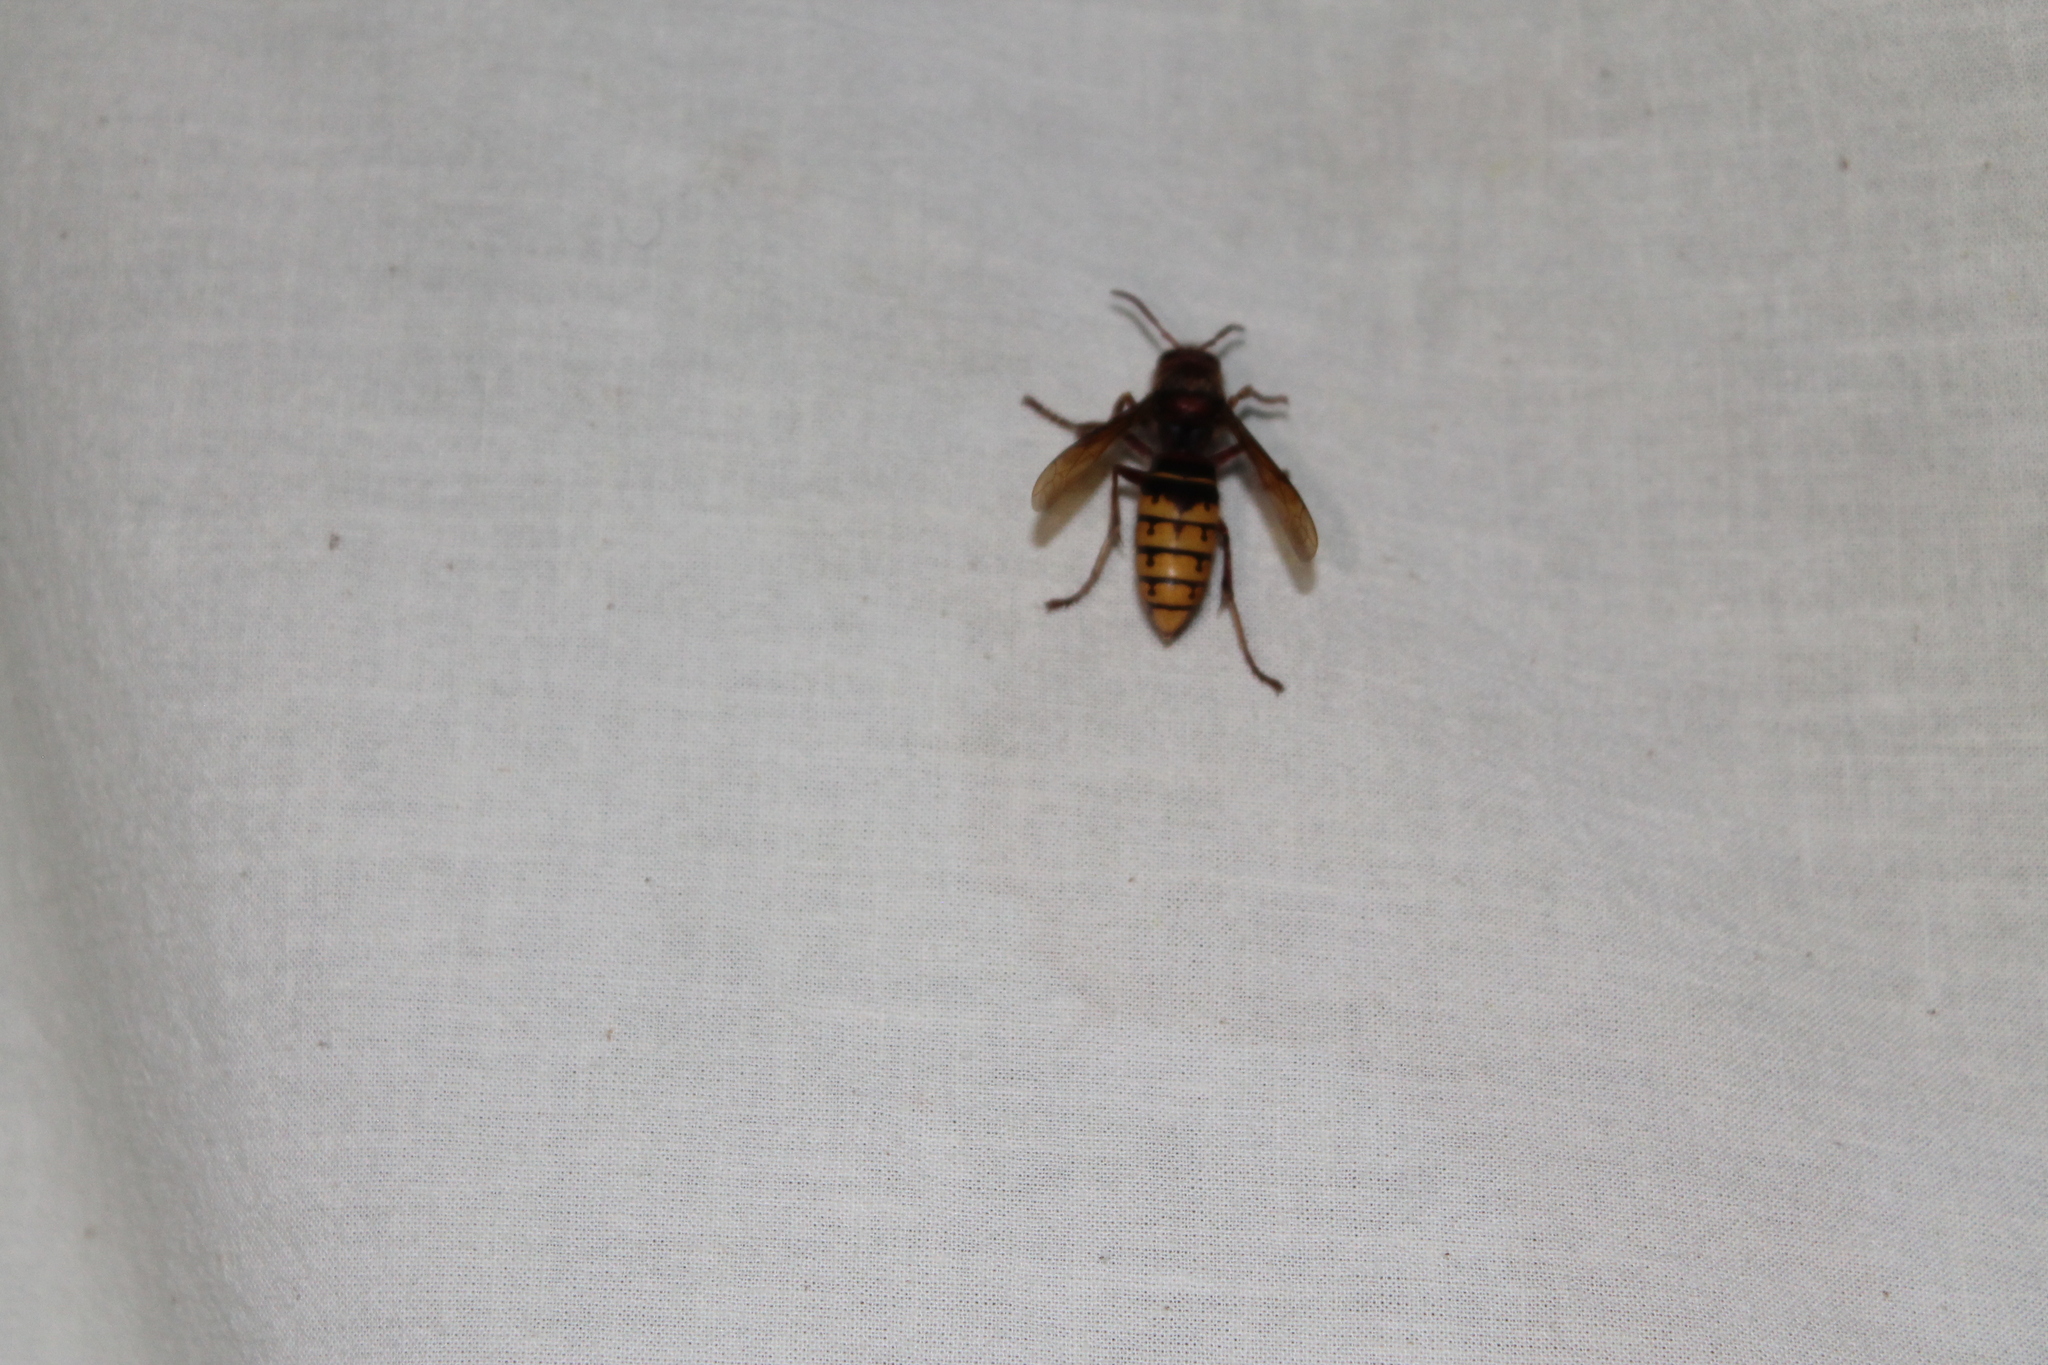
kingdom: Animalia
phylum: Arthropoda
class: Insecta
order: Hymenoptera
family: Vespidae
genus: Vespa
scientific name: Vespa crabro
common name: Hornet
